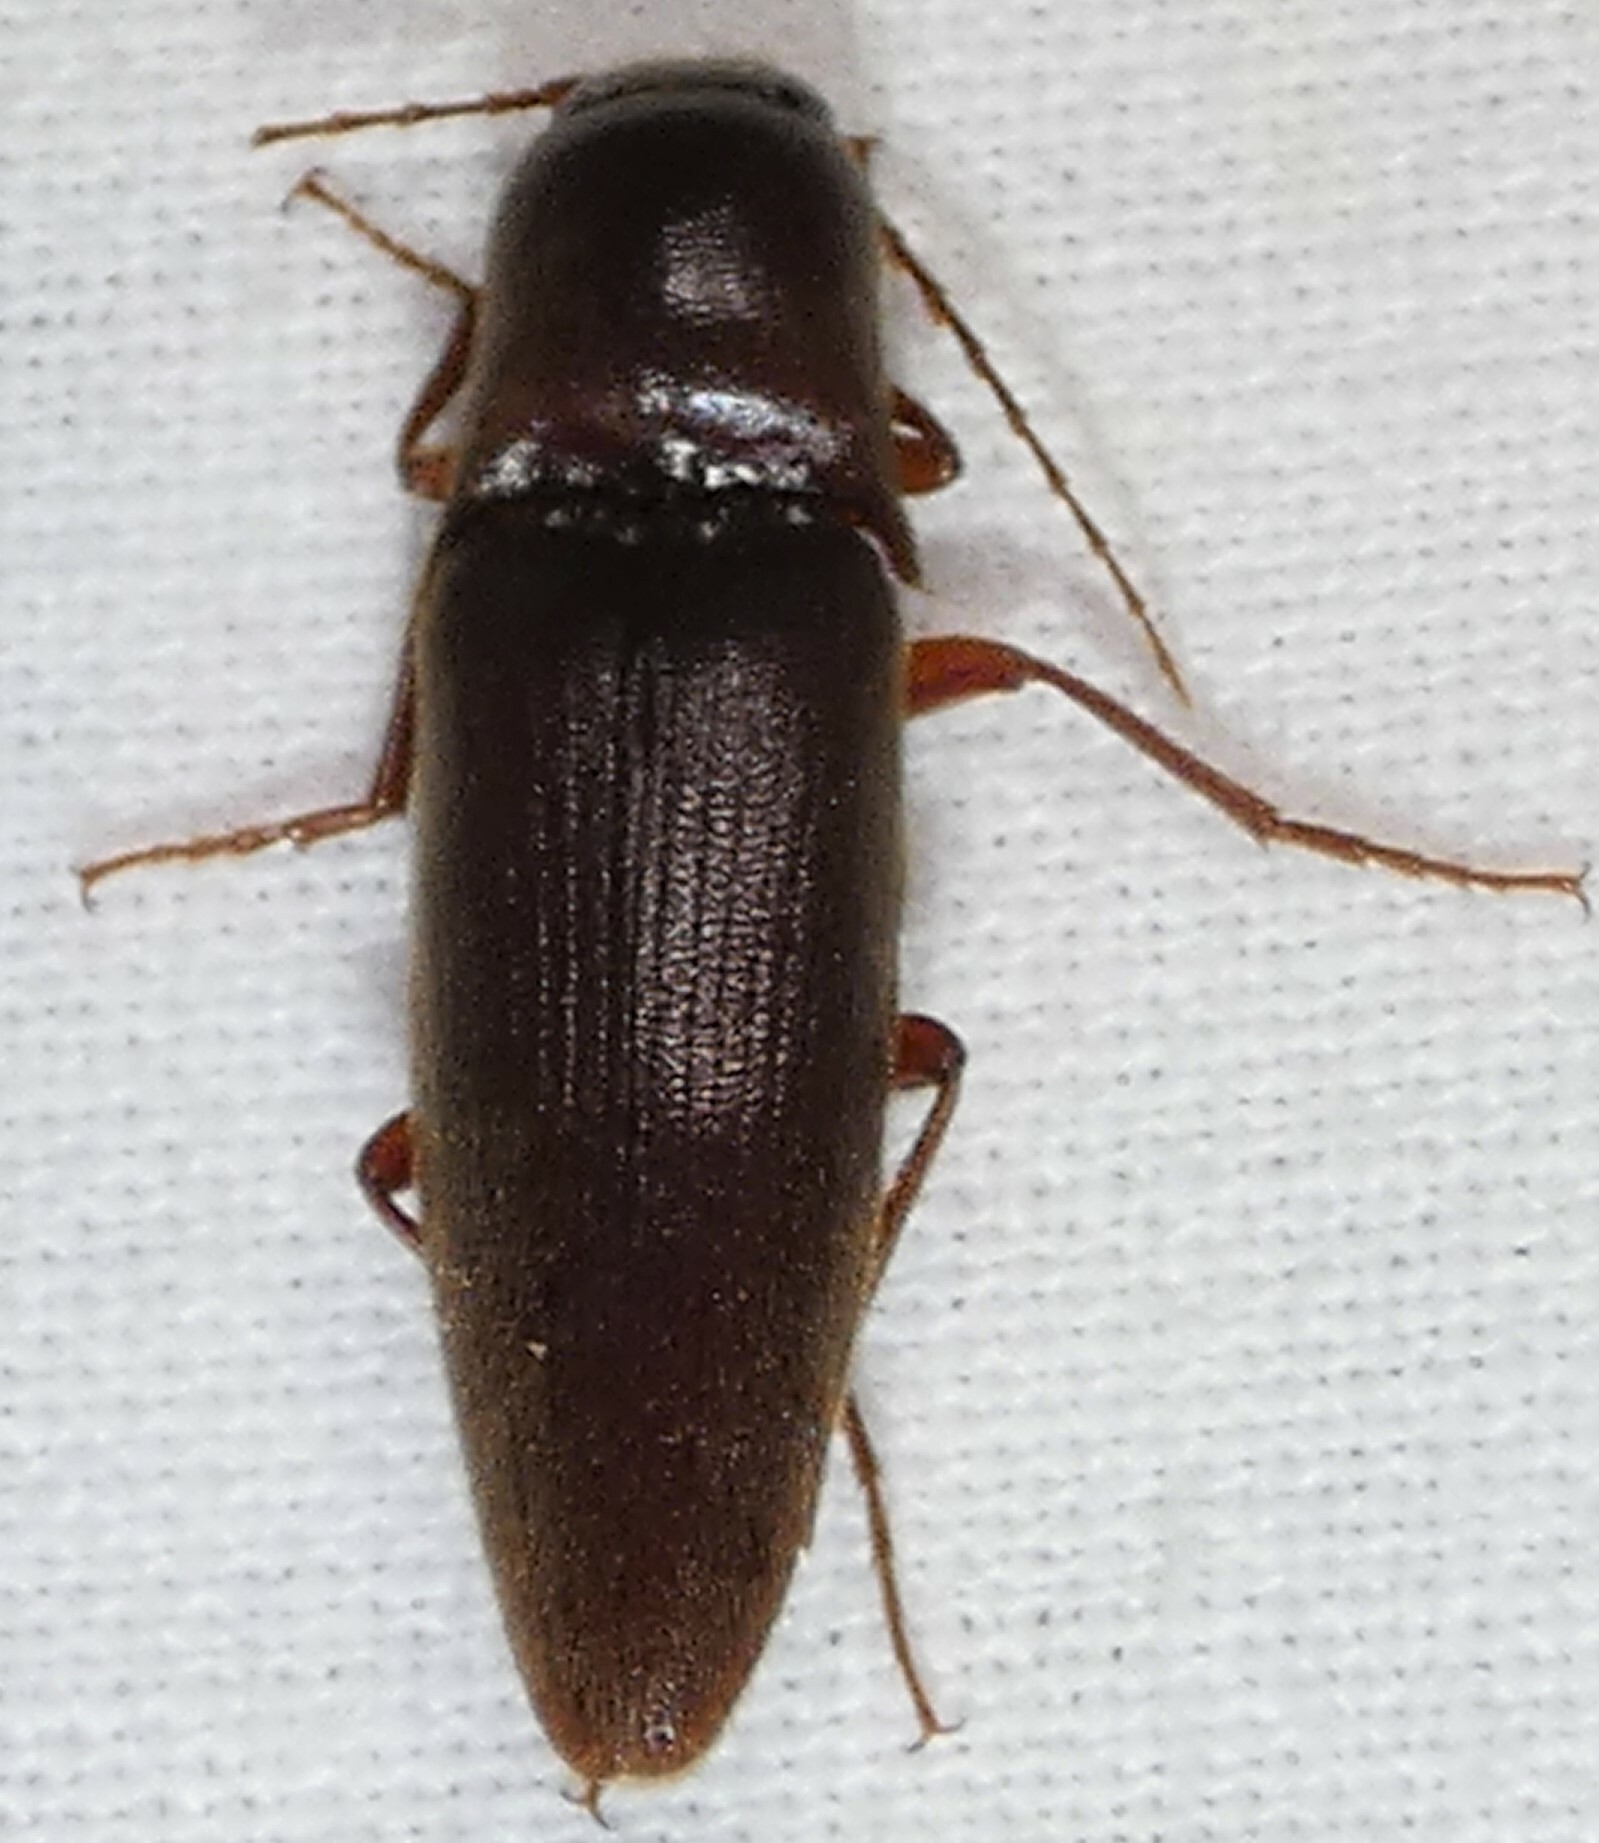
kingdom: Animalia
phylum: Arthropoda
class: Insecta
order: Coleoptera
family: Elateridae
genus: Diplostethus
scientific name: Diplostethus
